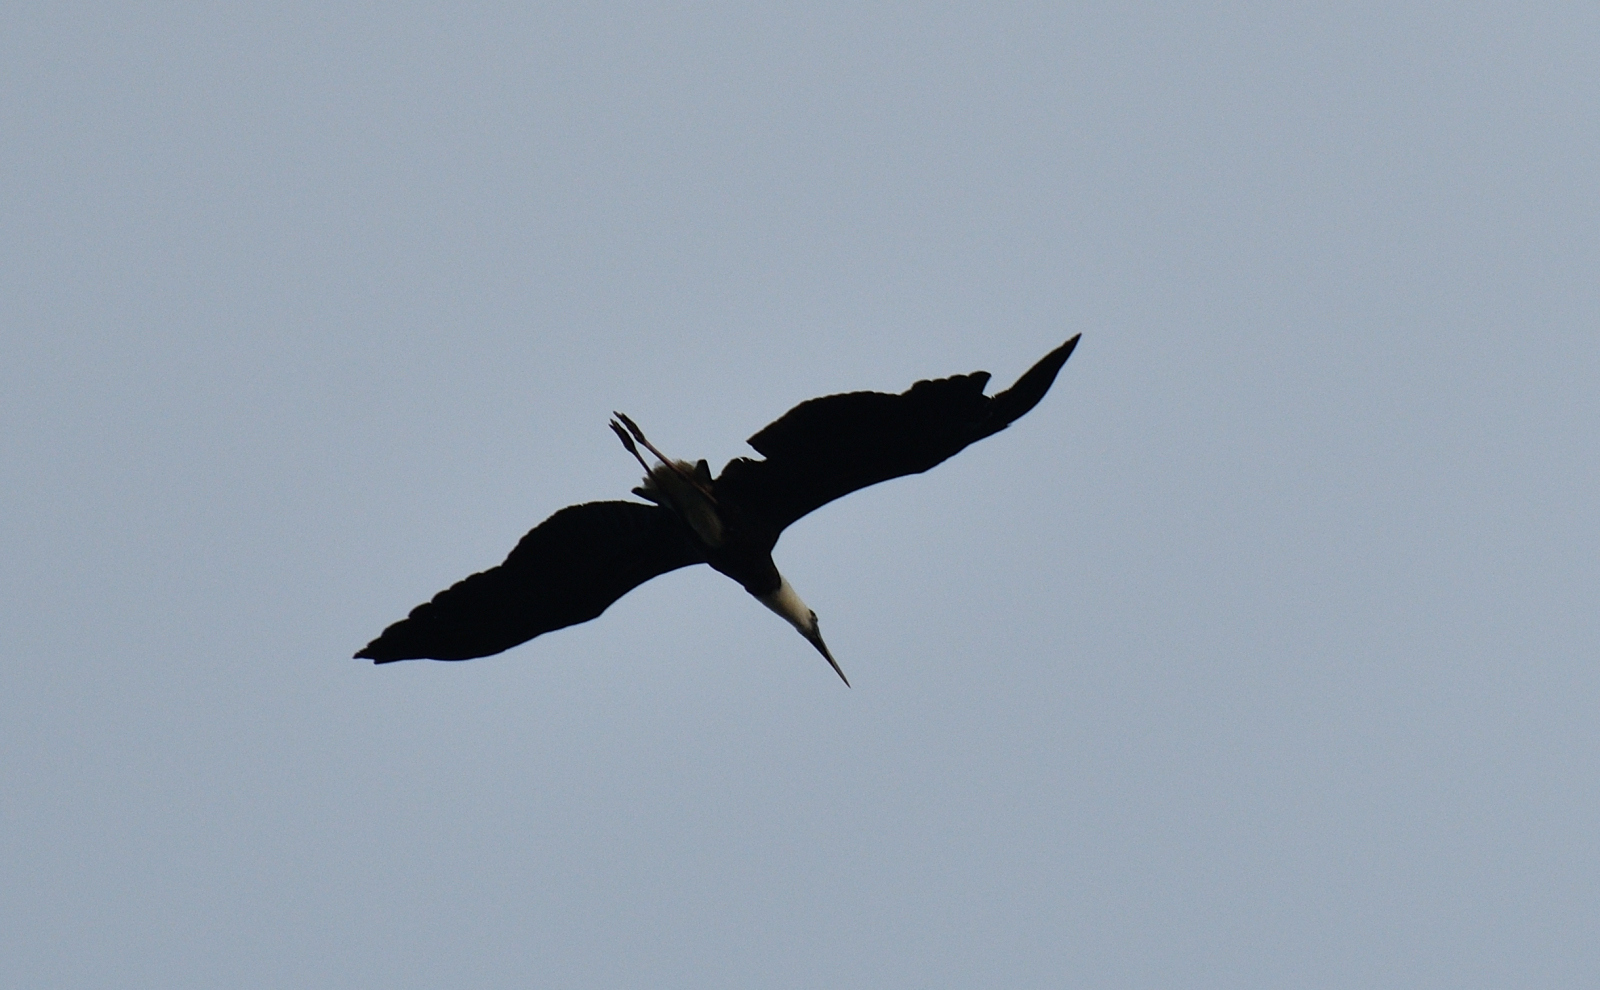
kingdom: Animalia
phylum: Chordata
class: Aves
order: Ciconiiformes
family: Ciconiidae
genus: Ciconia
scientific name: Ciconia episcopus
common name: Woolly-necked stork
